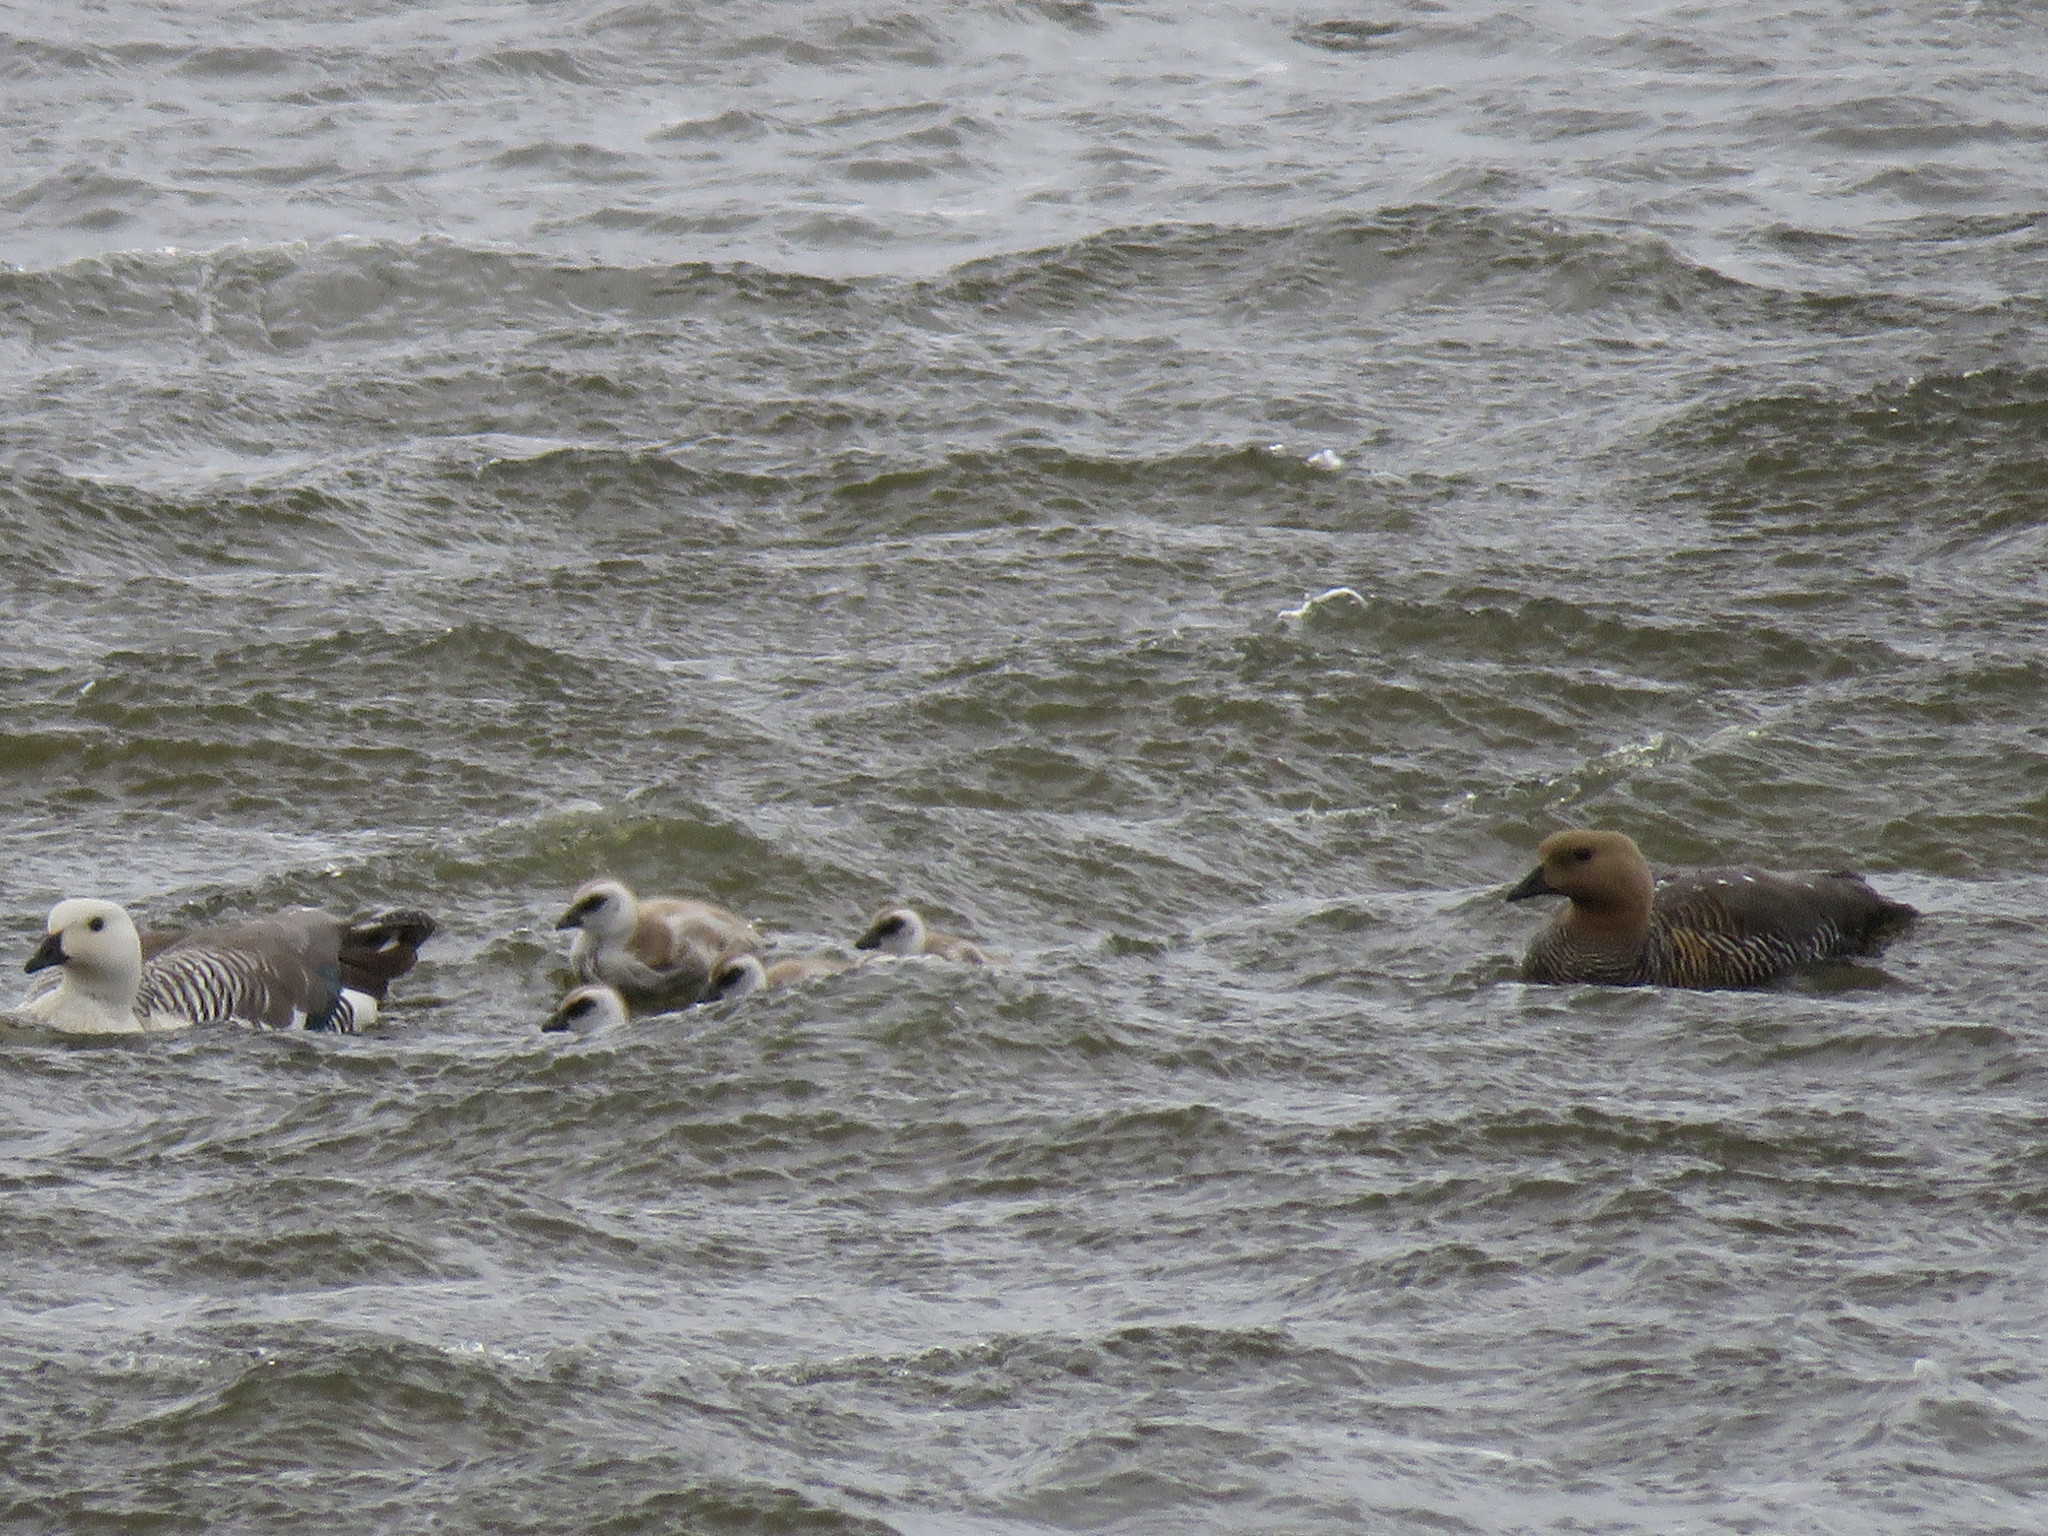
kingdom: Animalia
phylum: Chordata
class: Aves
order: Anseriformes
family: Anatidae
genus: Chloephaga
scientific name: Chloephaga picta
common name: Upland goose
